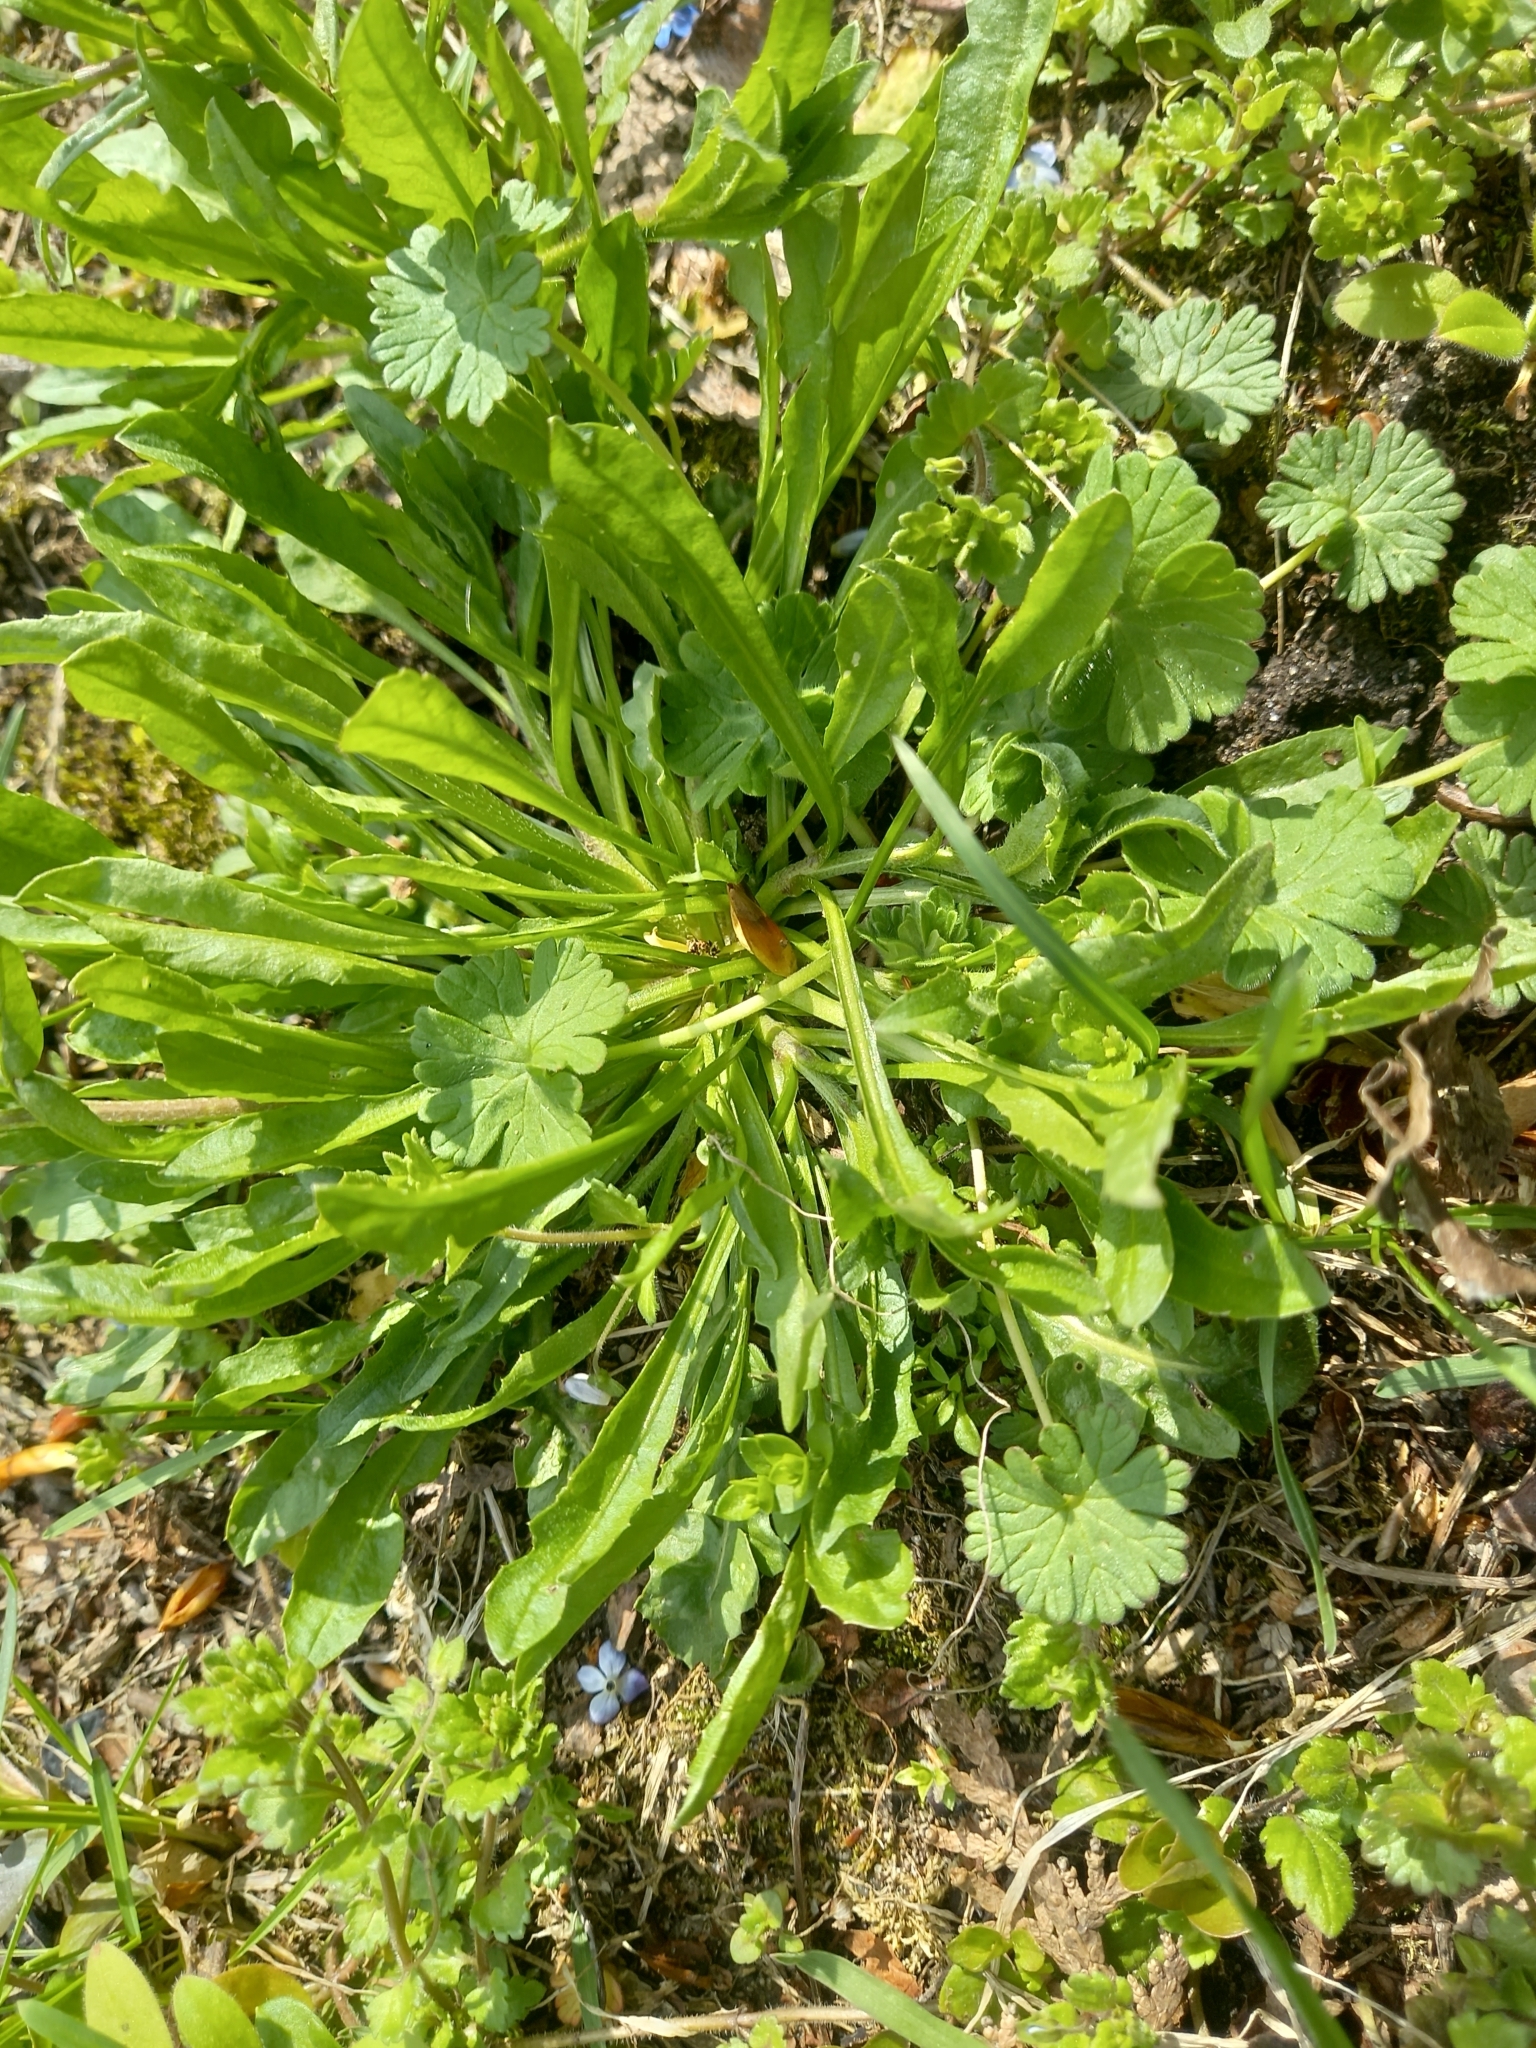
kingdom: Plantae
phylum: Tracheophyta
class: Magnoliopsida
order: Asterales
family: Asteraceae
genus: Scorzoneroides
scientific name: Scorzoneroides autumnalis
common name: Autumn hawkbit
